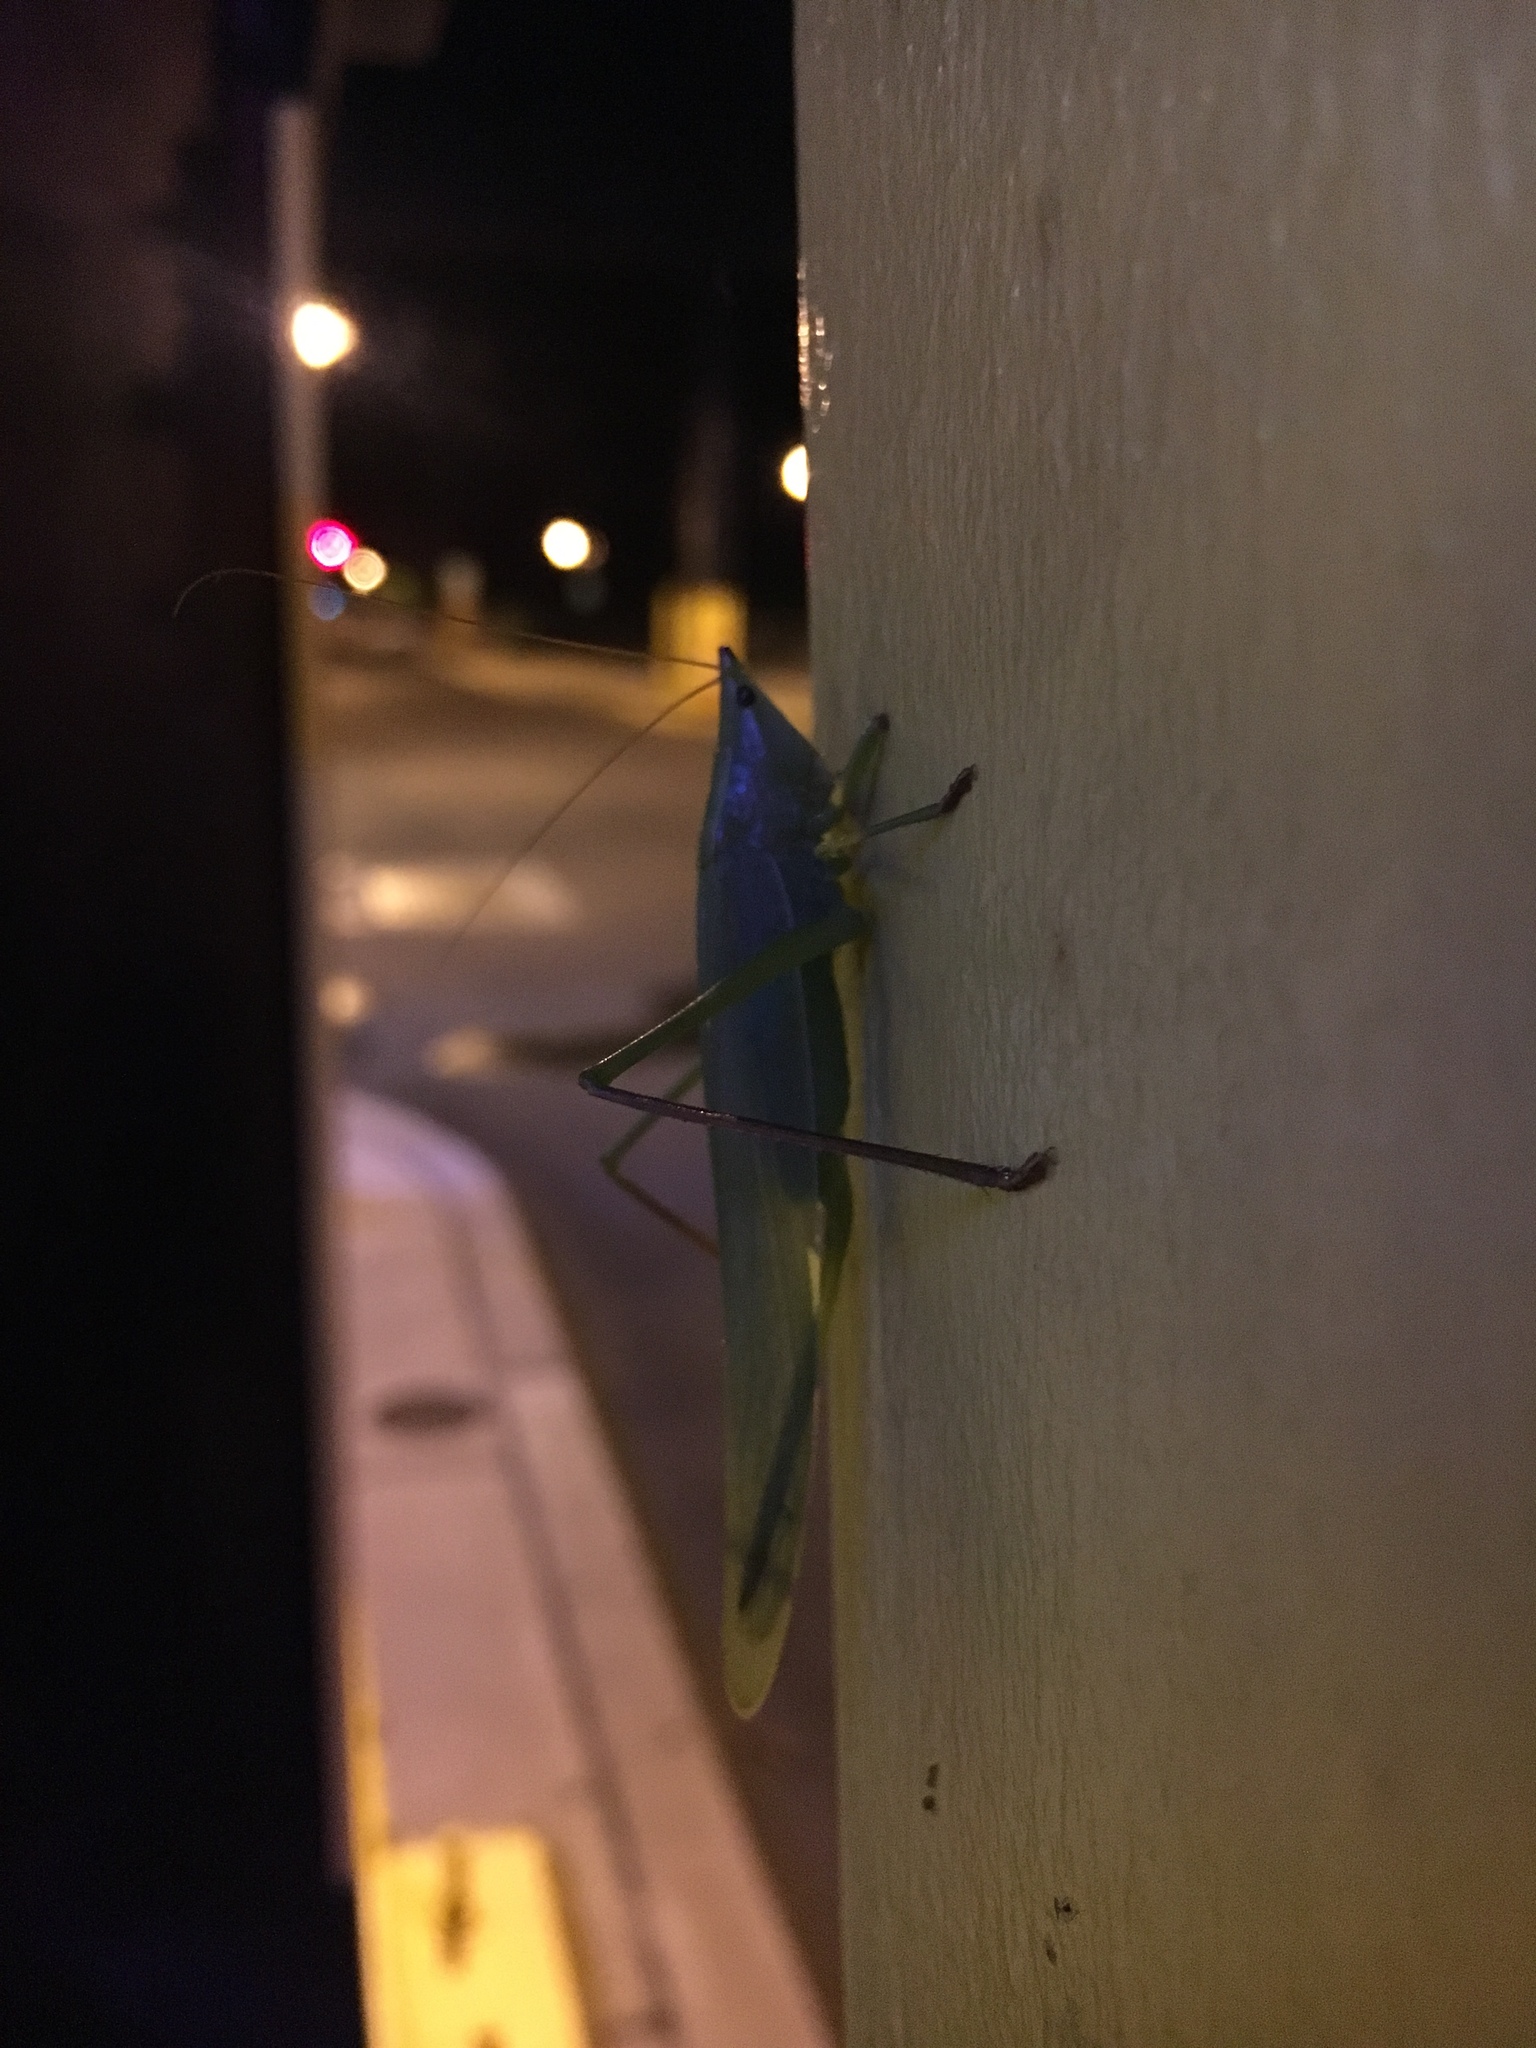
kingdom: Animalia
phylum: Arthropoda
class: Insecta
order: Orthoptera
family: Tettigoniidae
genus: Neoconocephalus
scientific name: Neoconocephalus ensiger
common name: Swordbearer
